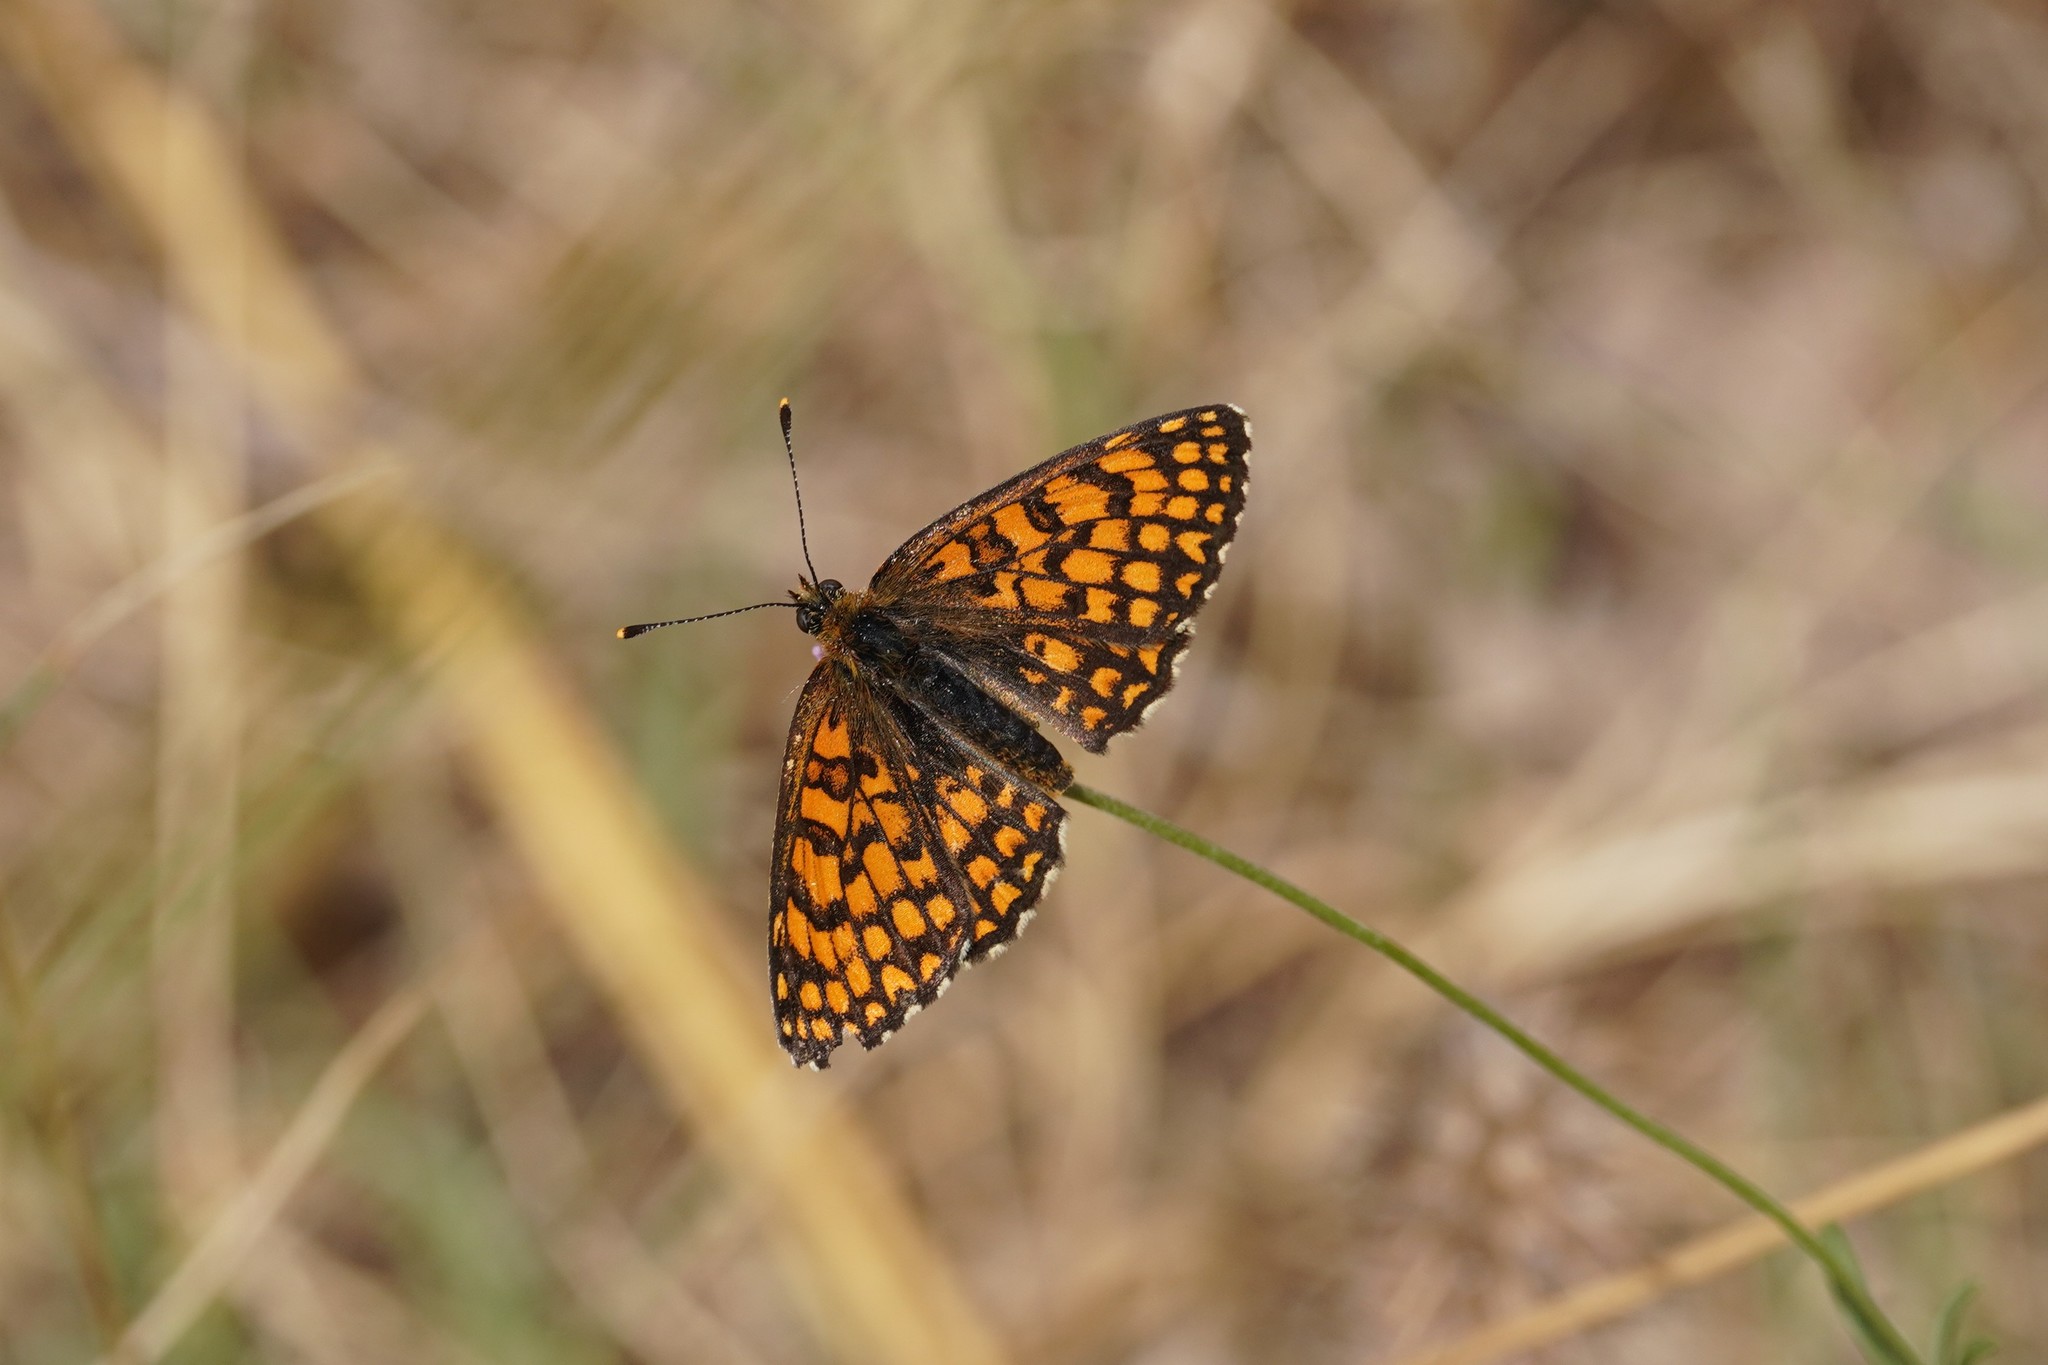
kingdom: Animalia
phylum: Arthropoda
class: Insecta
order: Lepidoptera
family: Nymphalidae
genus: Mellicta
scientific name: Mellicta athalia
